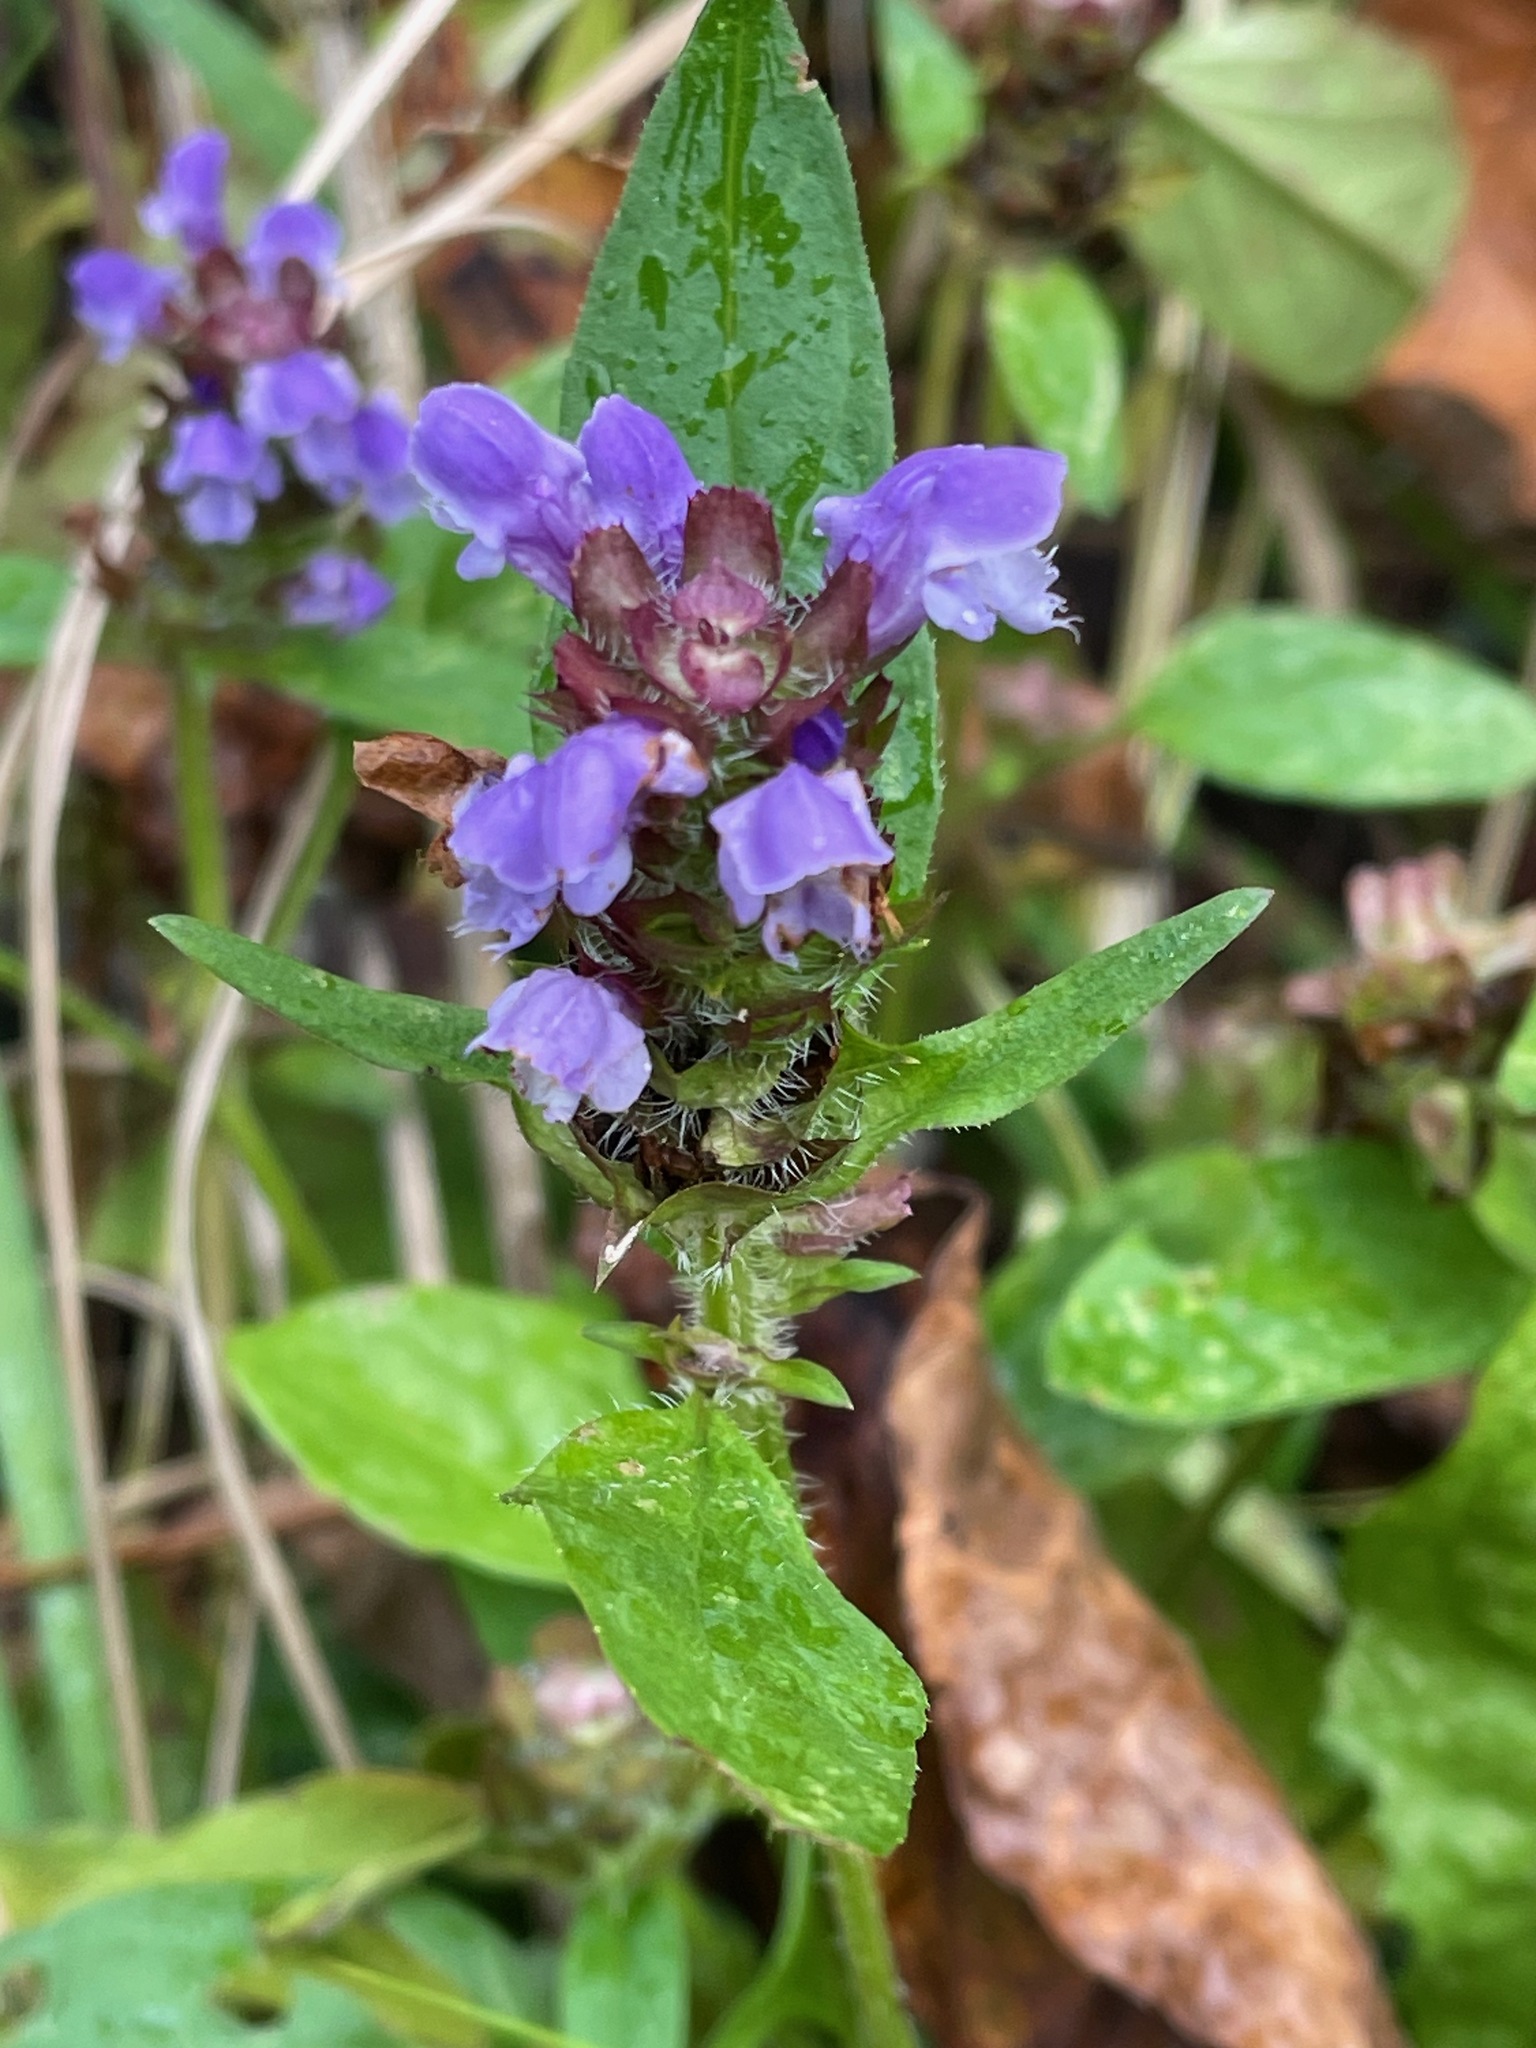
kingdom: Plantae
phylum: Tracheophyta
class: Magnoliopsida
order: Lamiales
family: Lamiaceae
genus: Prunella
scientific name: Prunella vulgaris
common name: Heal-all
